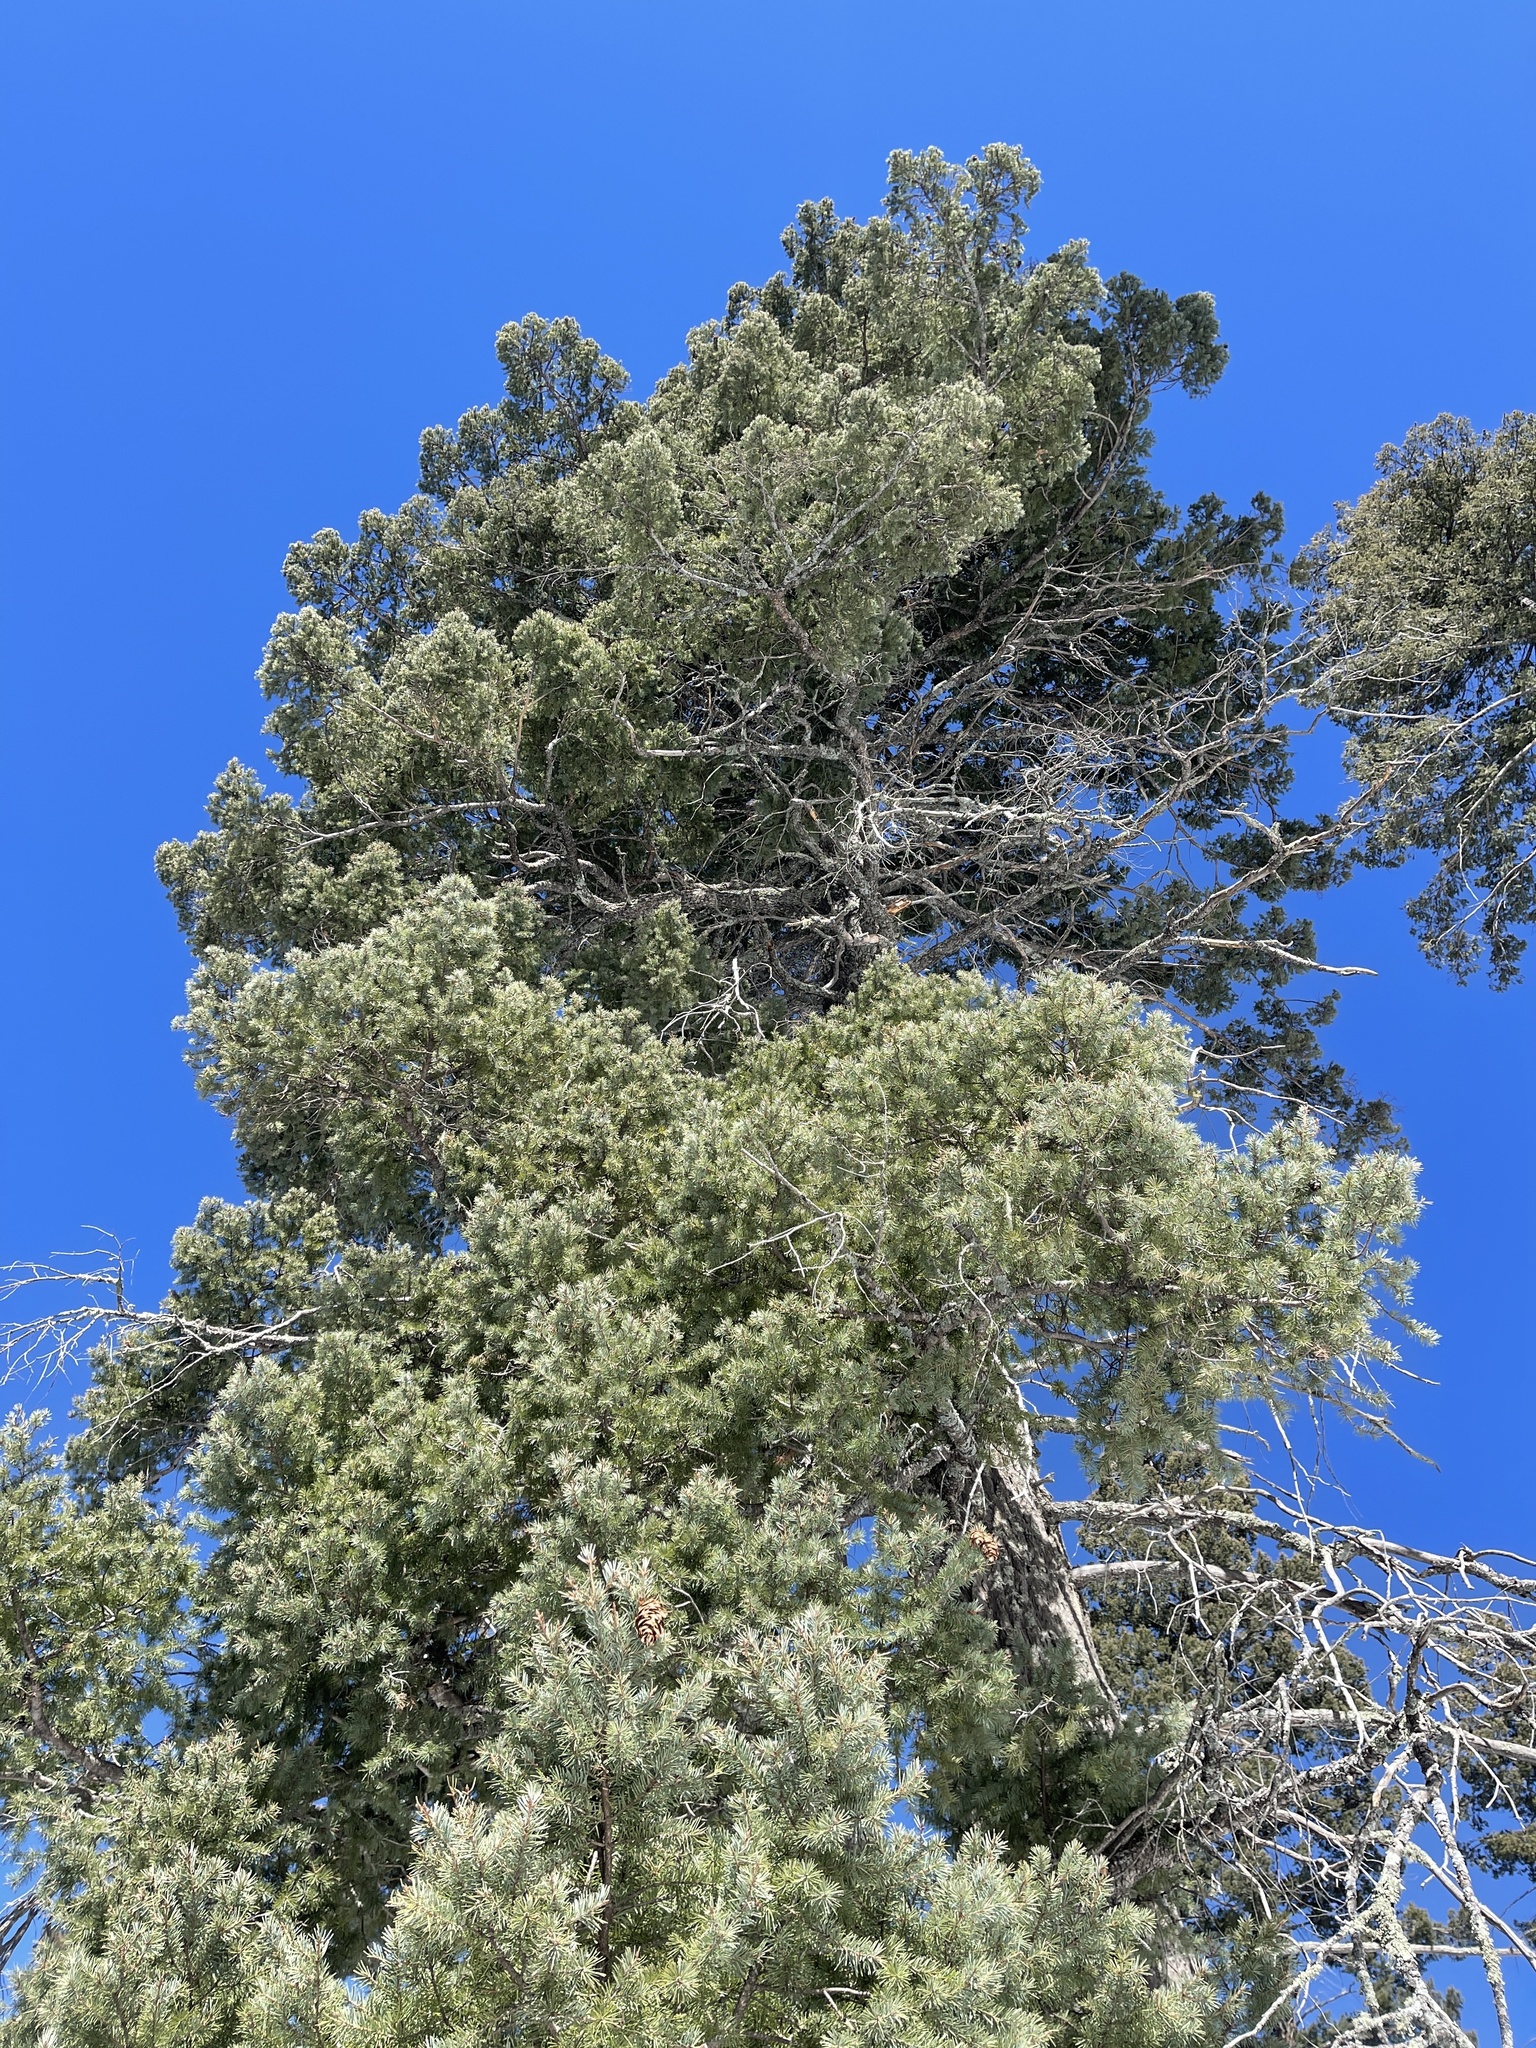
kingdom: Plantae
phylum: Tracheophyta
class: Pinopsida
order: Pinales
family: Pinaceae
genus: Pseudotsuga
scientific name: Pseudotsuga menziesii
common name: Douglas fir
